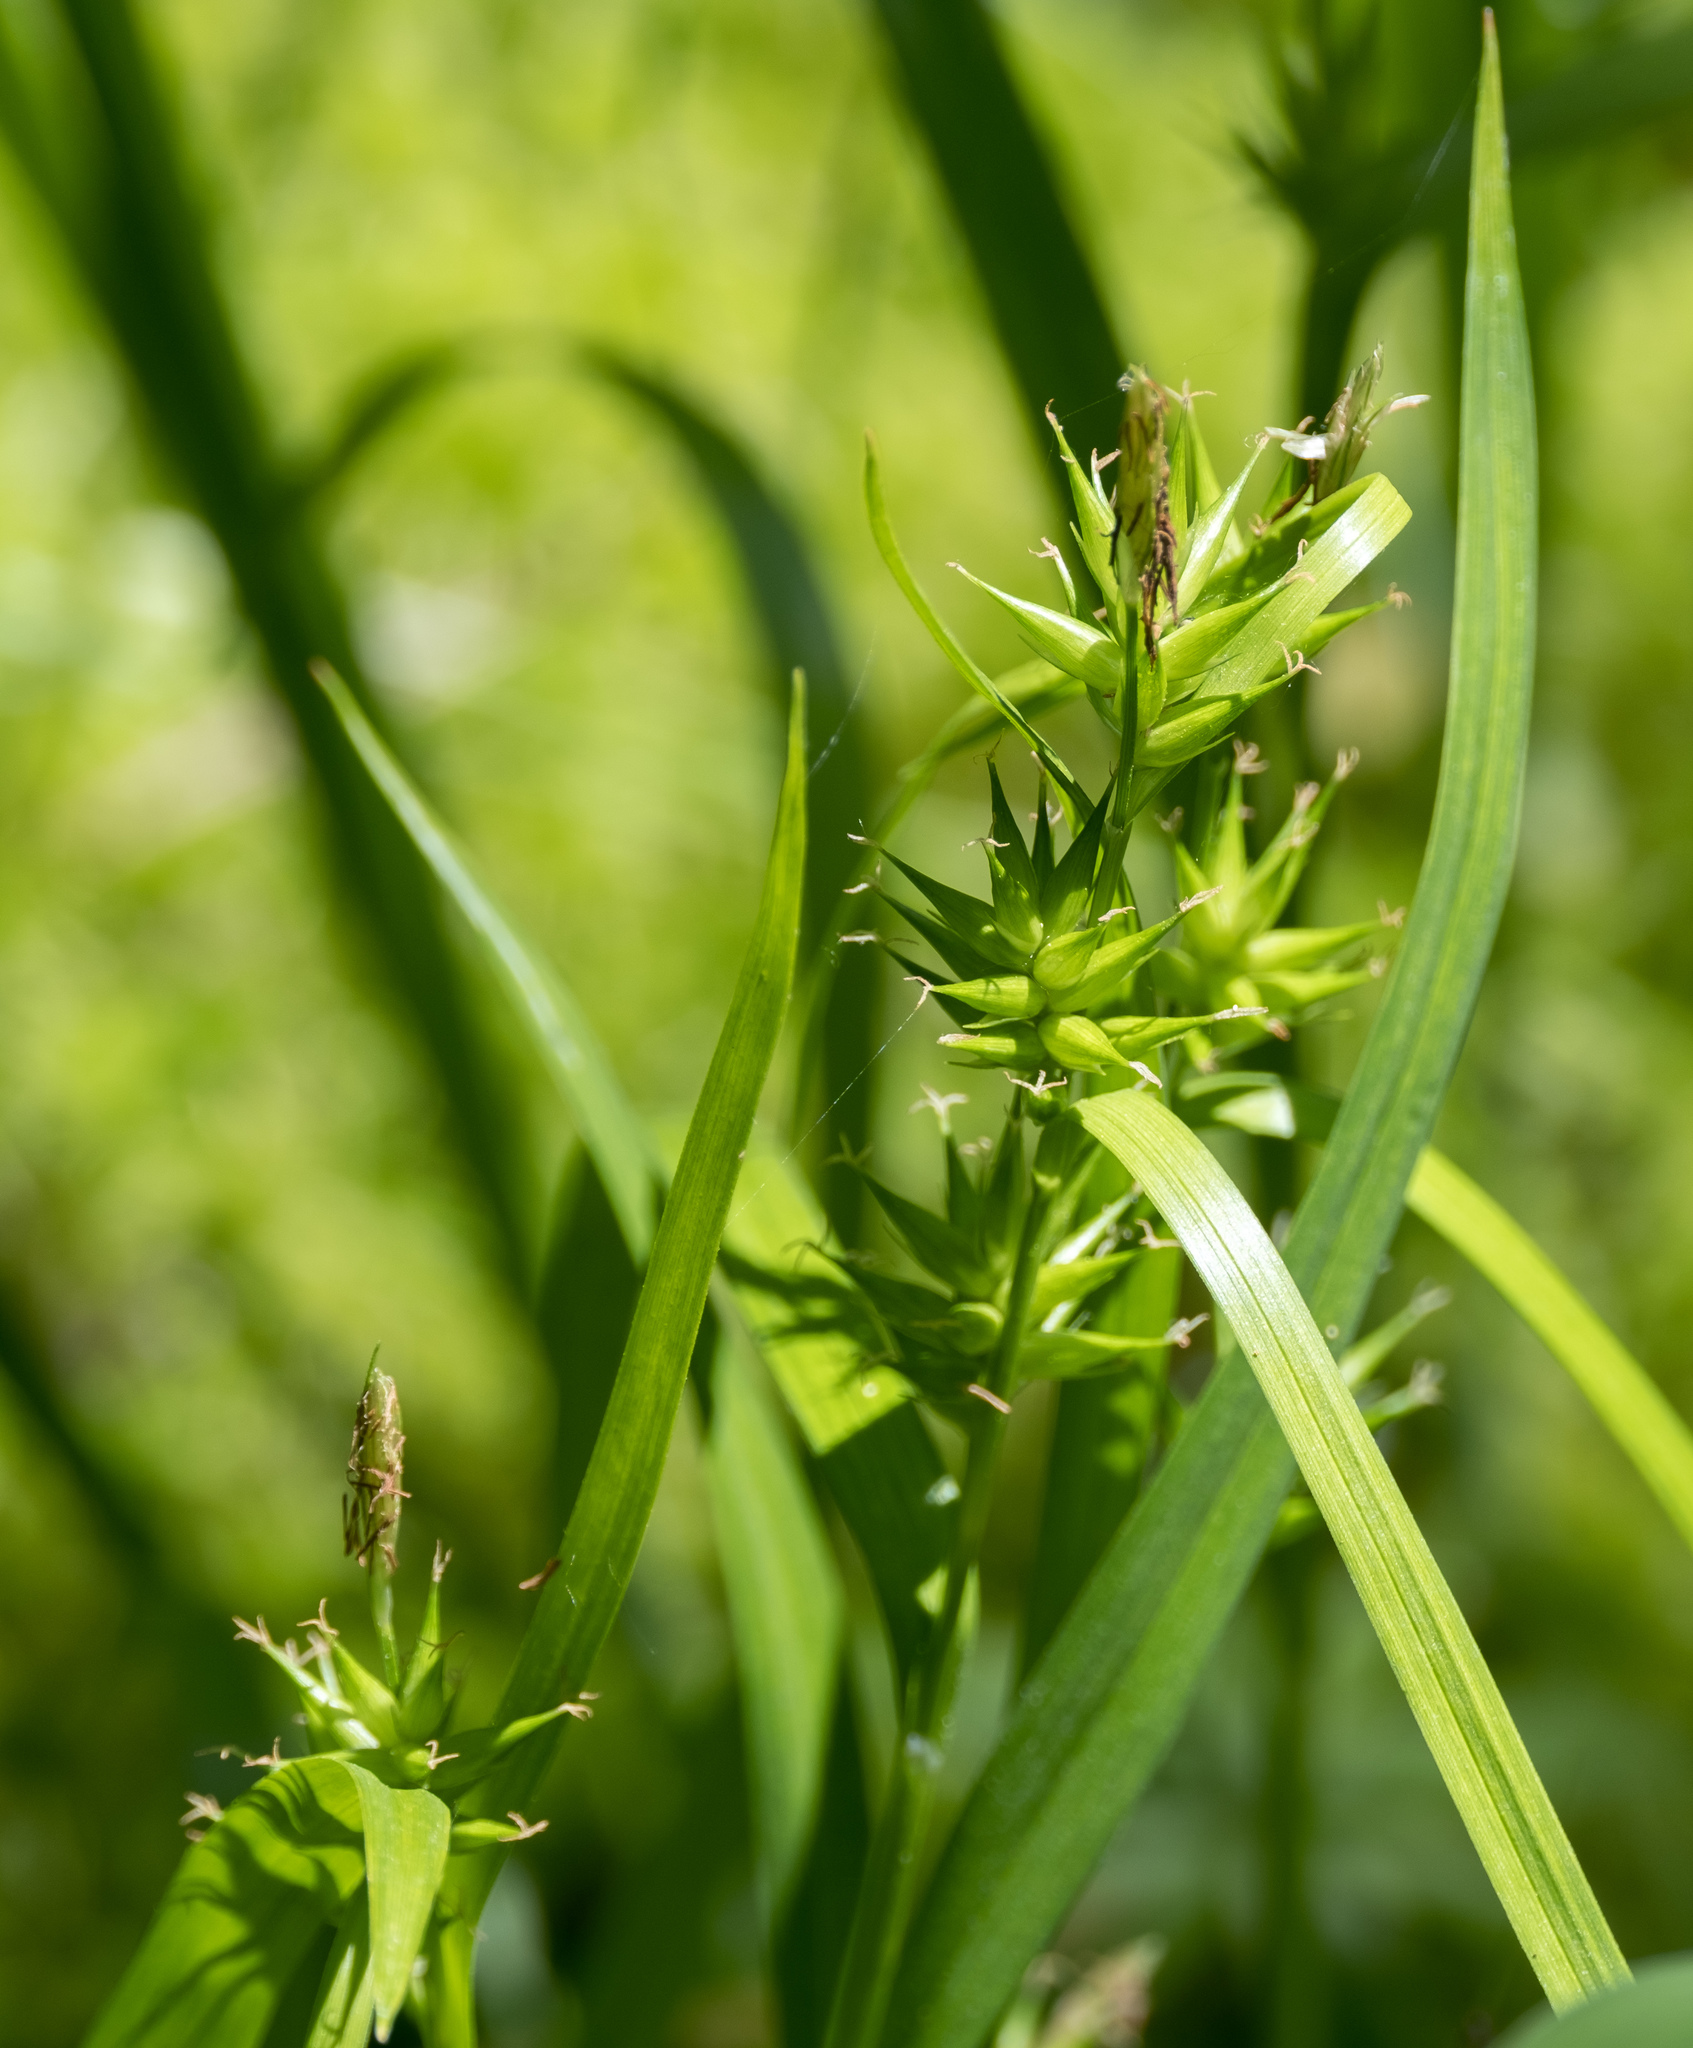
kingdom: Plantae
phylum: Tracheophyta
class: Liliopsida
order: Poales
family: Cyperaceae
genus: Carex
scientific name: Carex folliculata
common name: Northern long sedge
